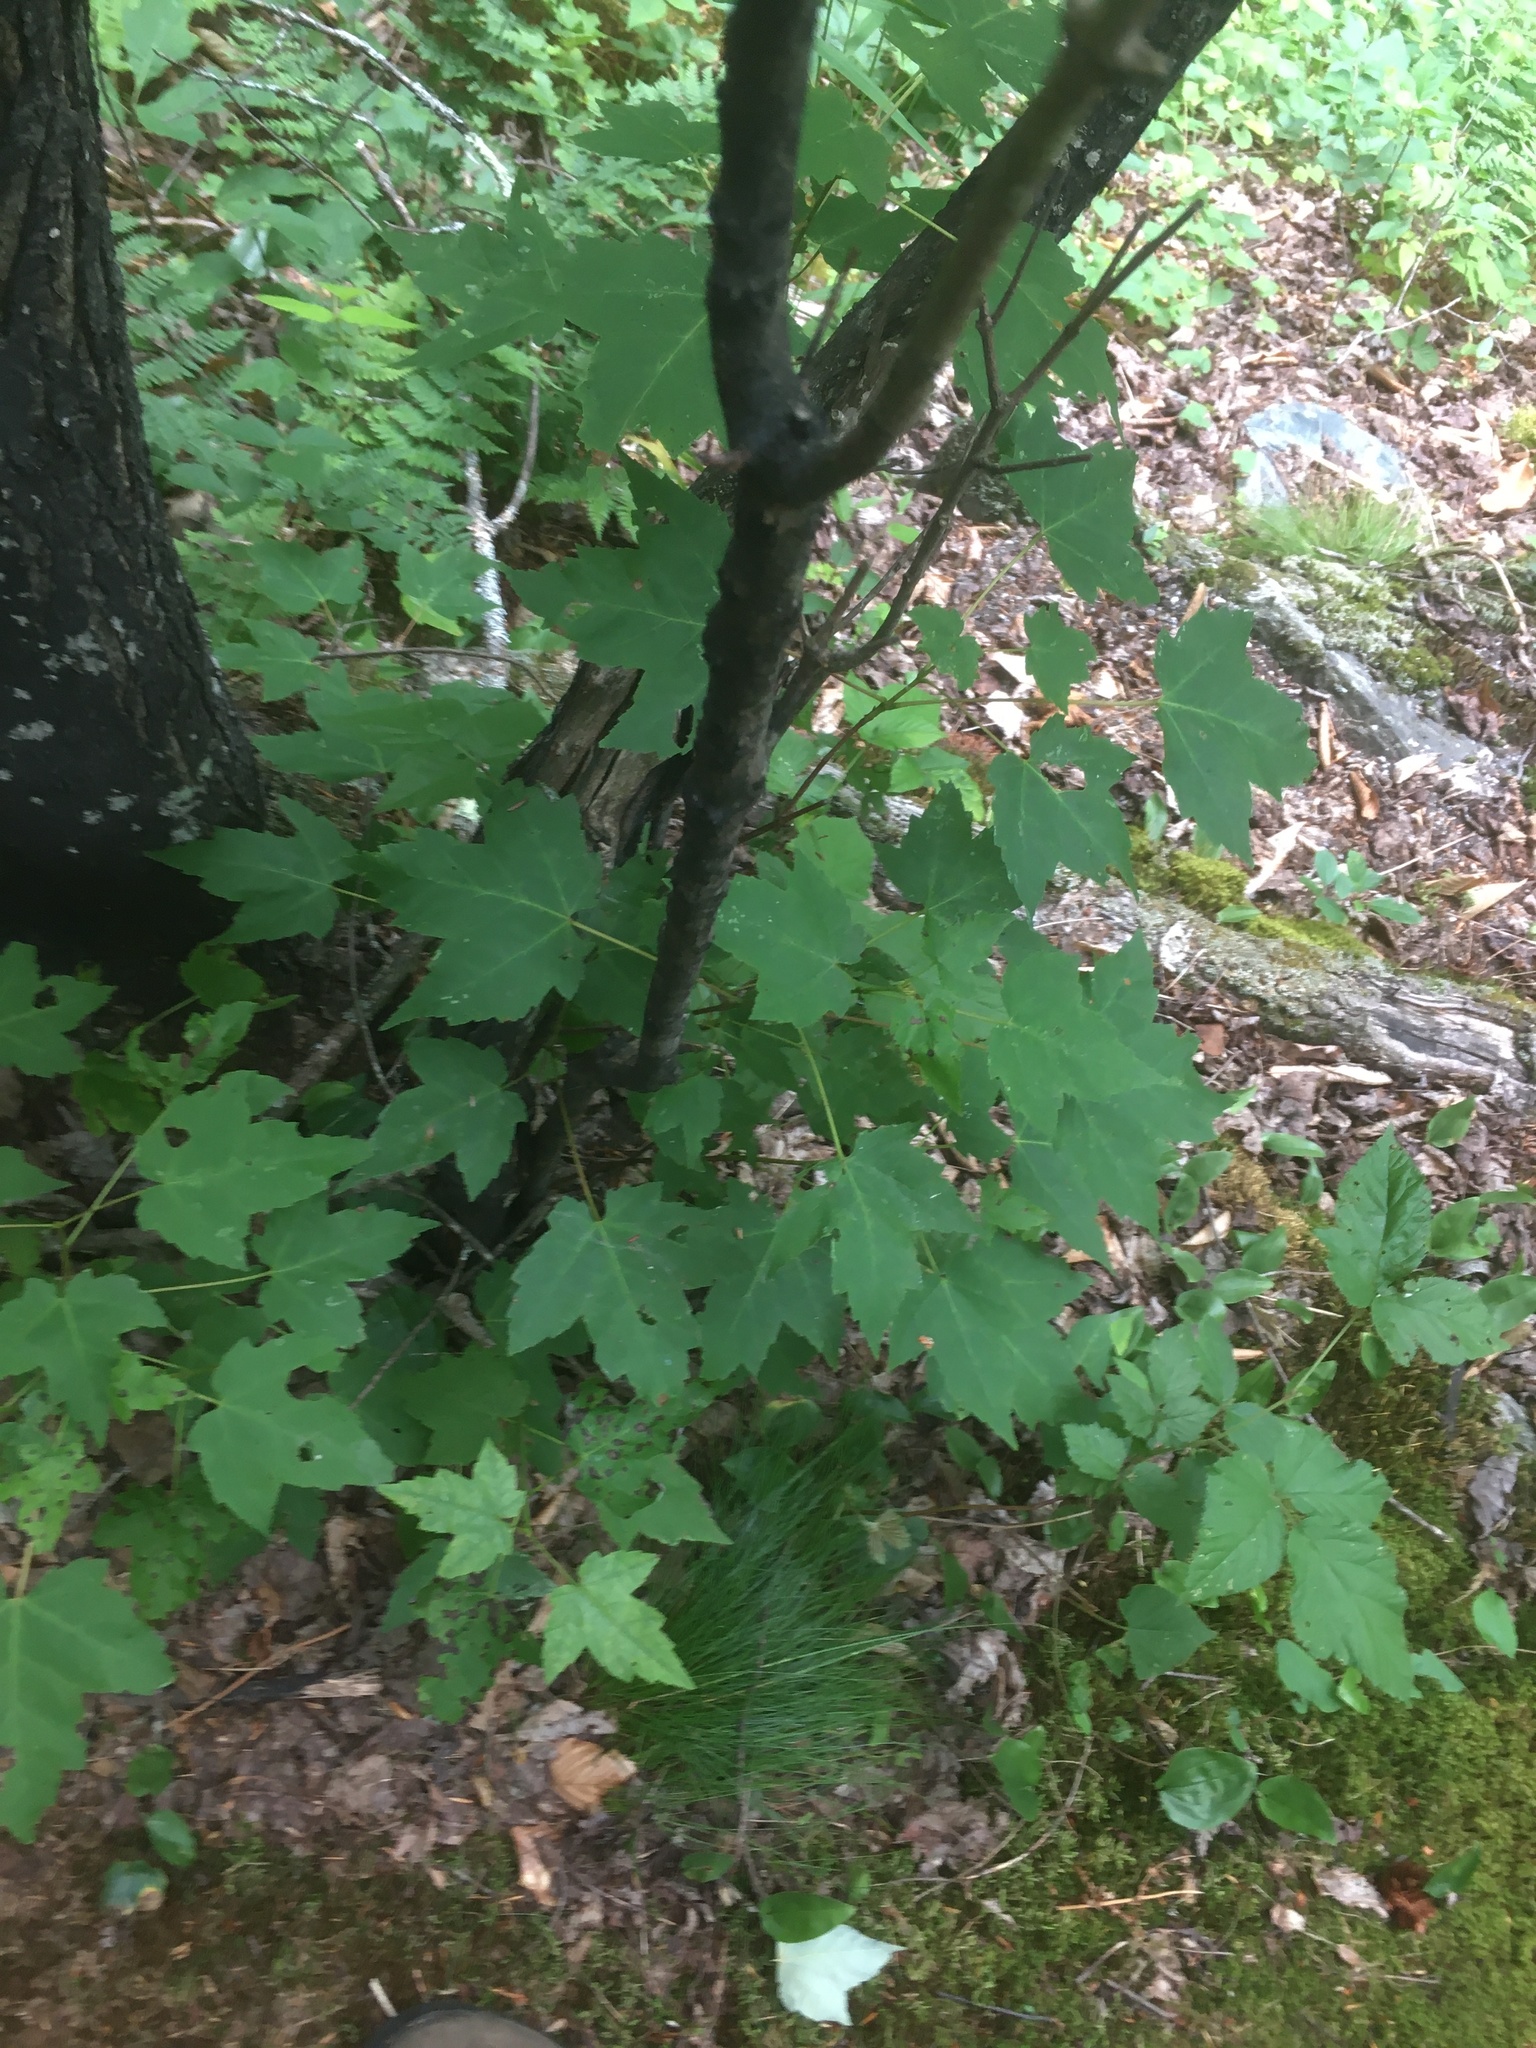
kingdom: Plantae
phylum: Tracheophyta
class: Magnoliopsida
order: Sapindales
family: Sapindaceae
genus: Acer
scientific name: Acer rubrum
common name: Red maple
